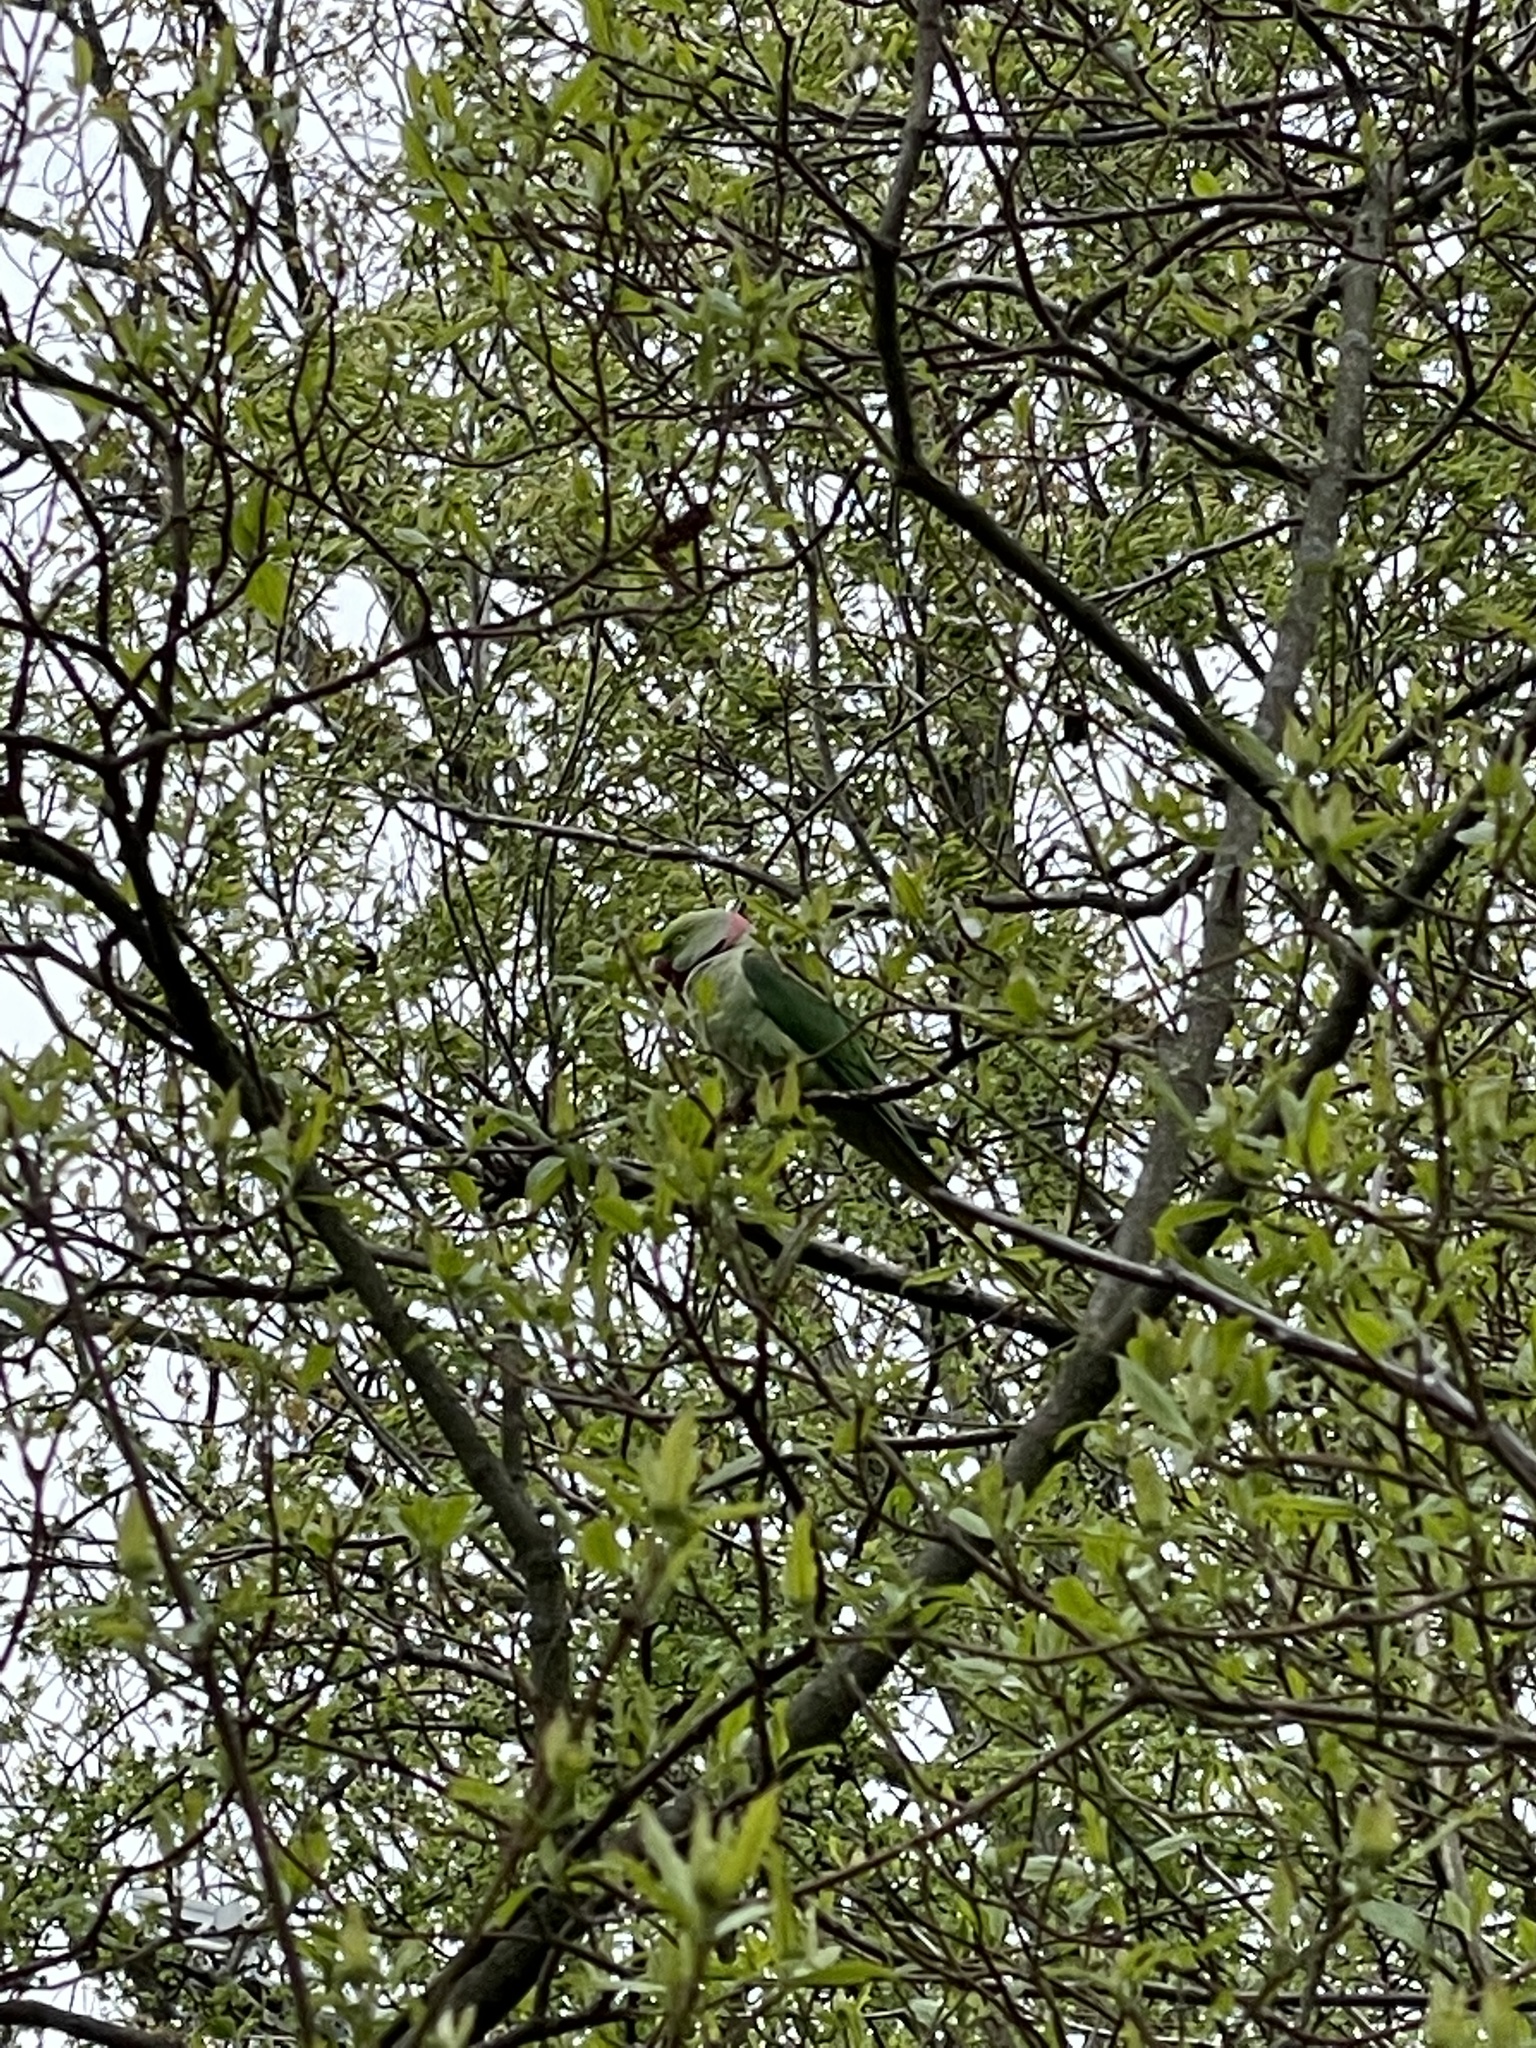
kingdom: Animalia
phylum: Chordata
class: Aves
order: Psittaciformes
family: Psittacidae
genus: Psittacula
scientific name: Psittacula eupatria
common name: Alexandrine parakeet
